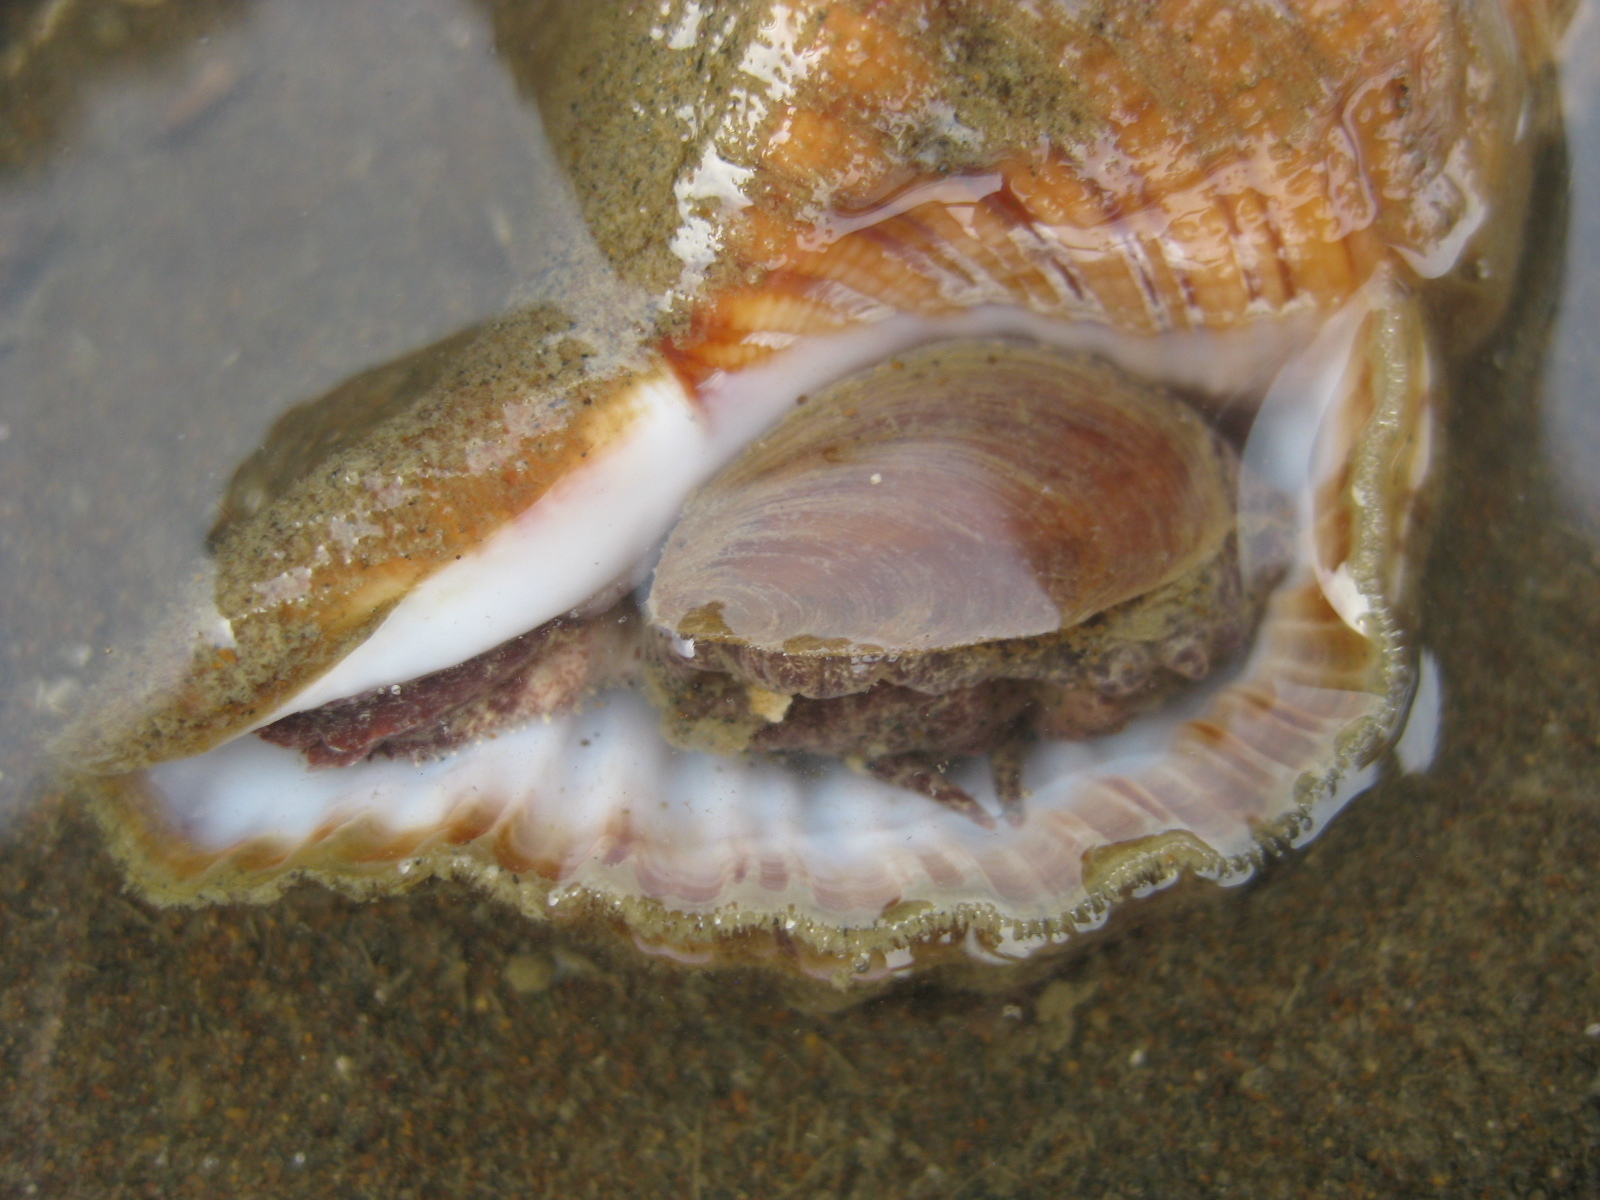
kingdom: Animalia
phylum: Mollusca
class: Gastropoda
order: Littorinimorpha
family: Cymatiidae
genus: Cabestana
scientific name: Cabestana spengleri
